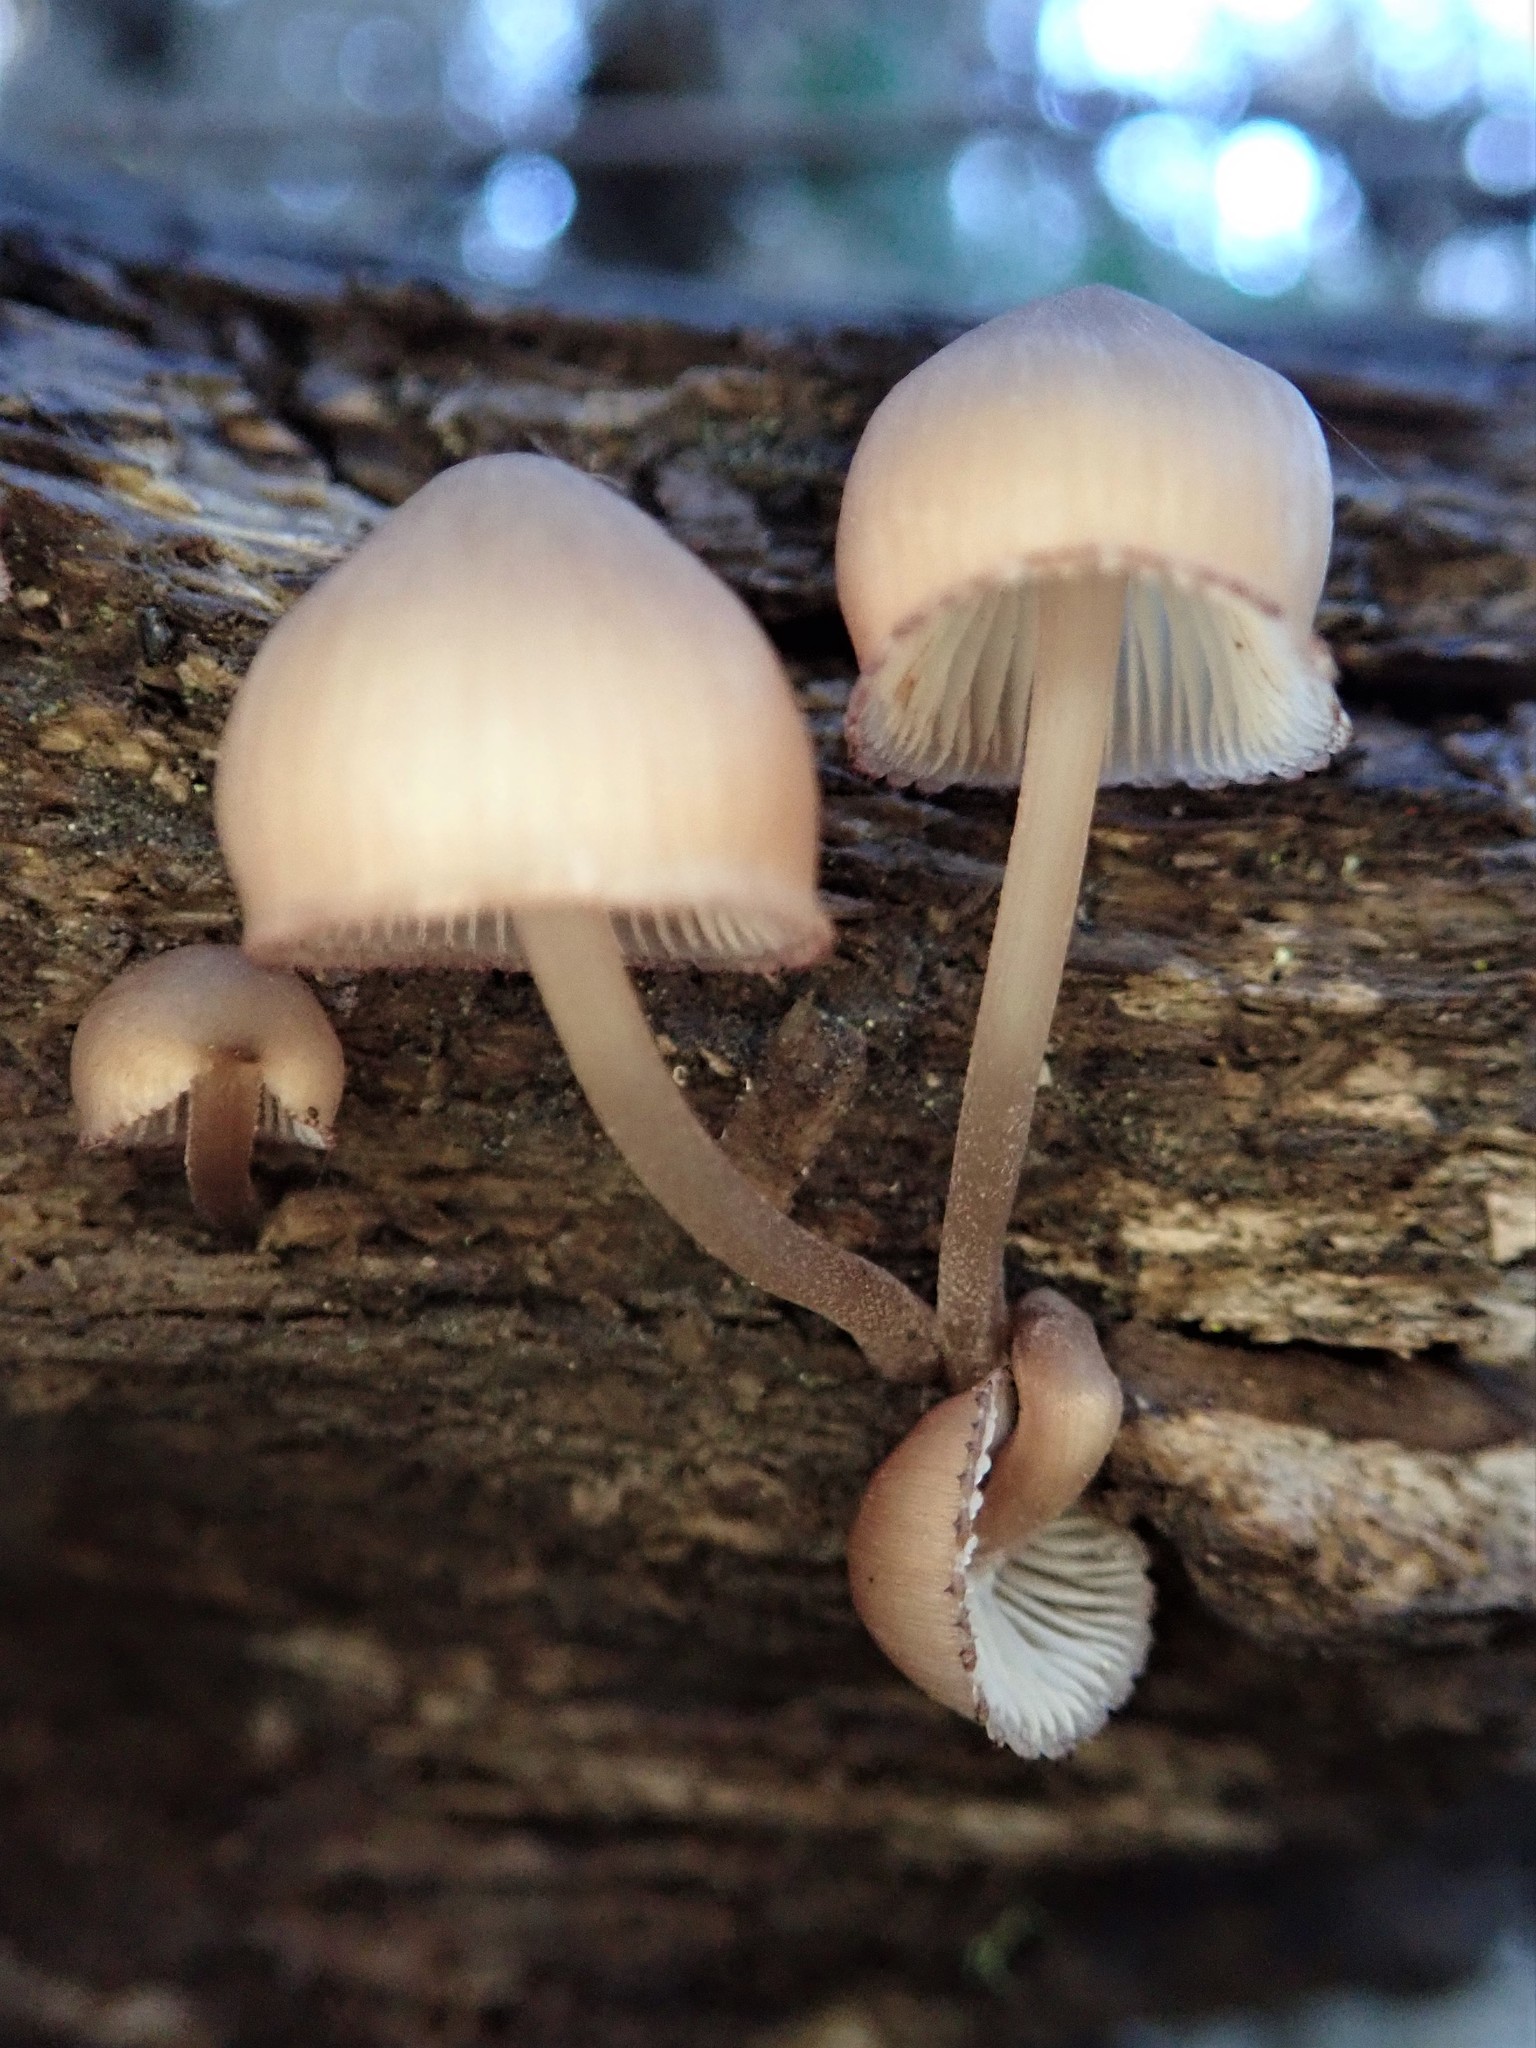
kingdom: Fungi
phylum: Basidiomycota
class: Agaricomycetes
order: Agaricales
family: Mycenaceae
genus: Mycena
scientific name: Mycena haematopus
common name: Burgundydrop bonnet
